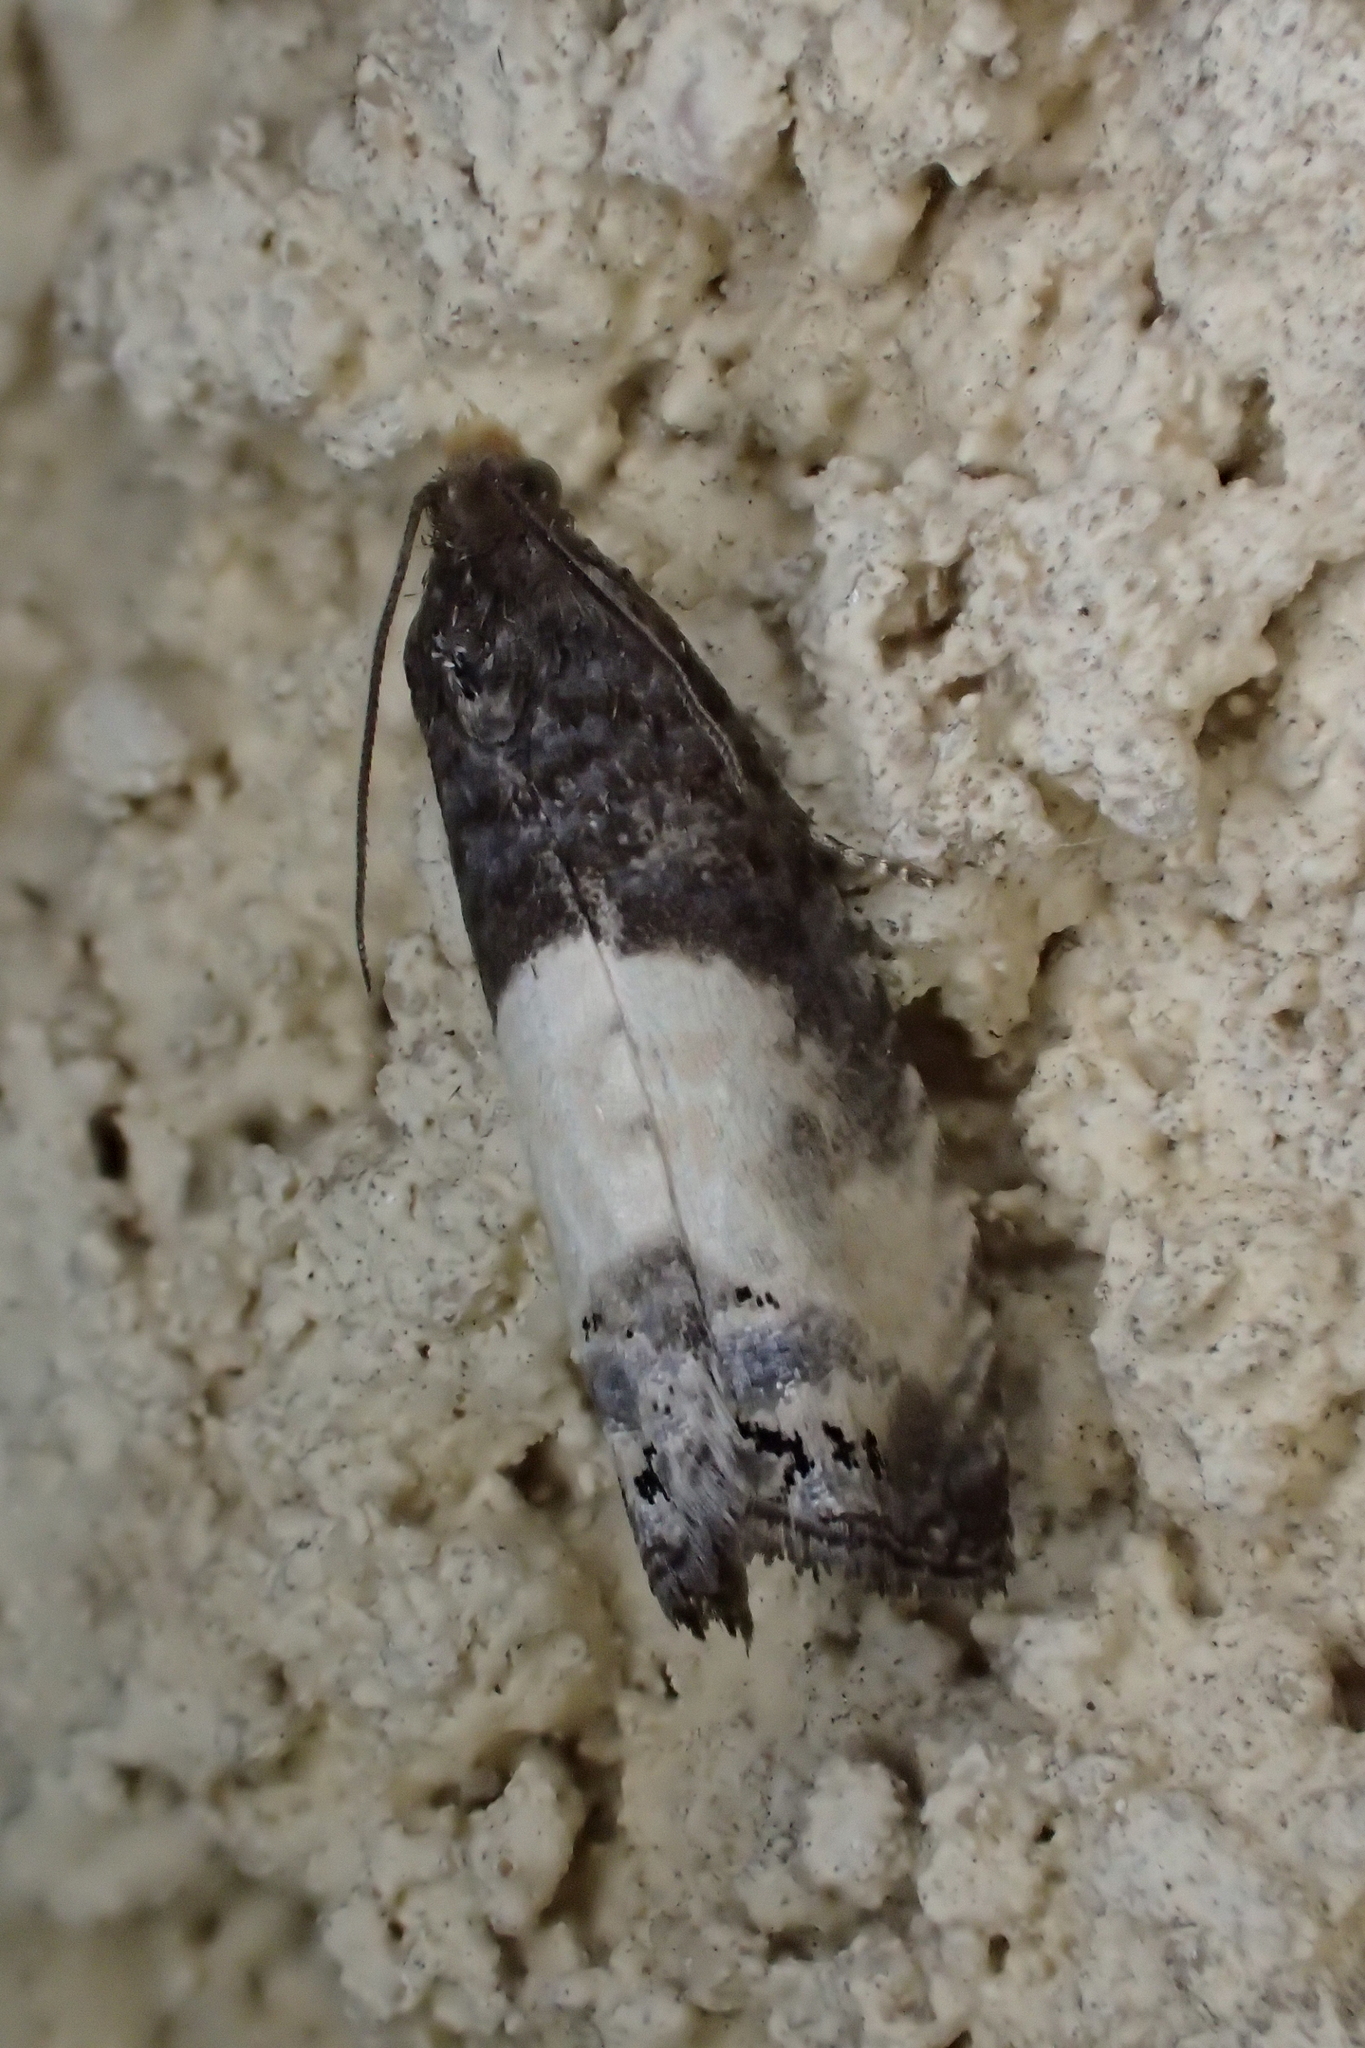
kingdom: Animalia
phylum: Arthropoda
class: Insecta
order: Lepidoptera
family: Tortricidae
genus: Notocelia
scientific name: Notocelia cynosbatella
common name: Yellow-faced bell moth
